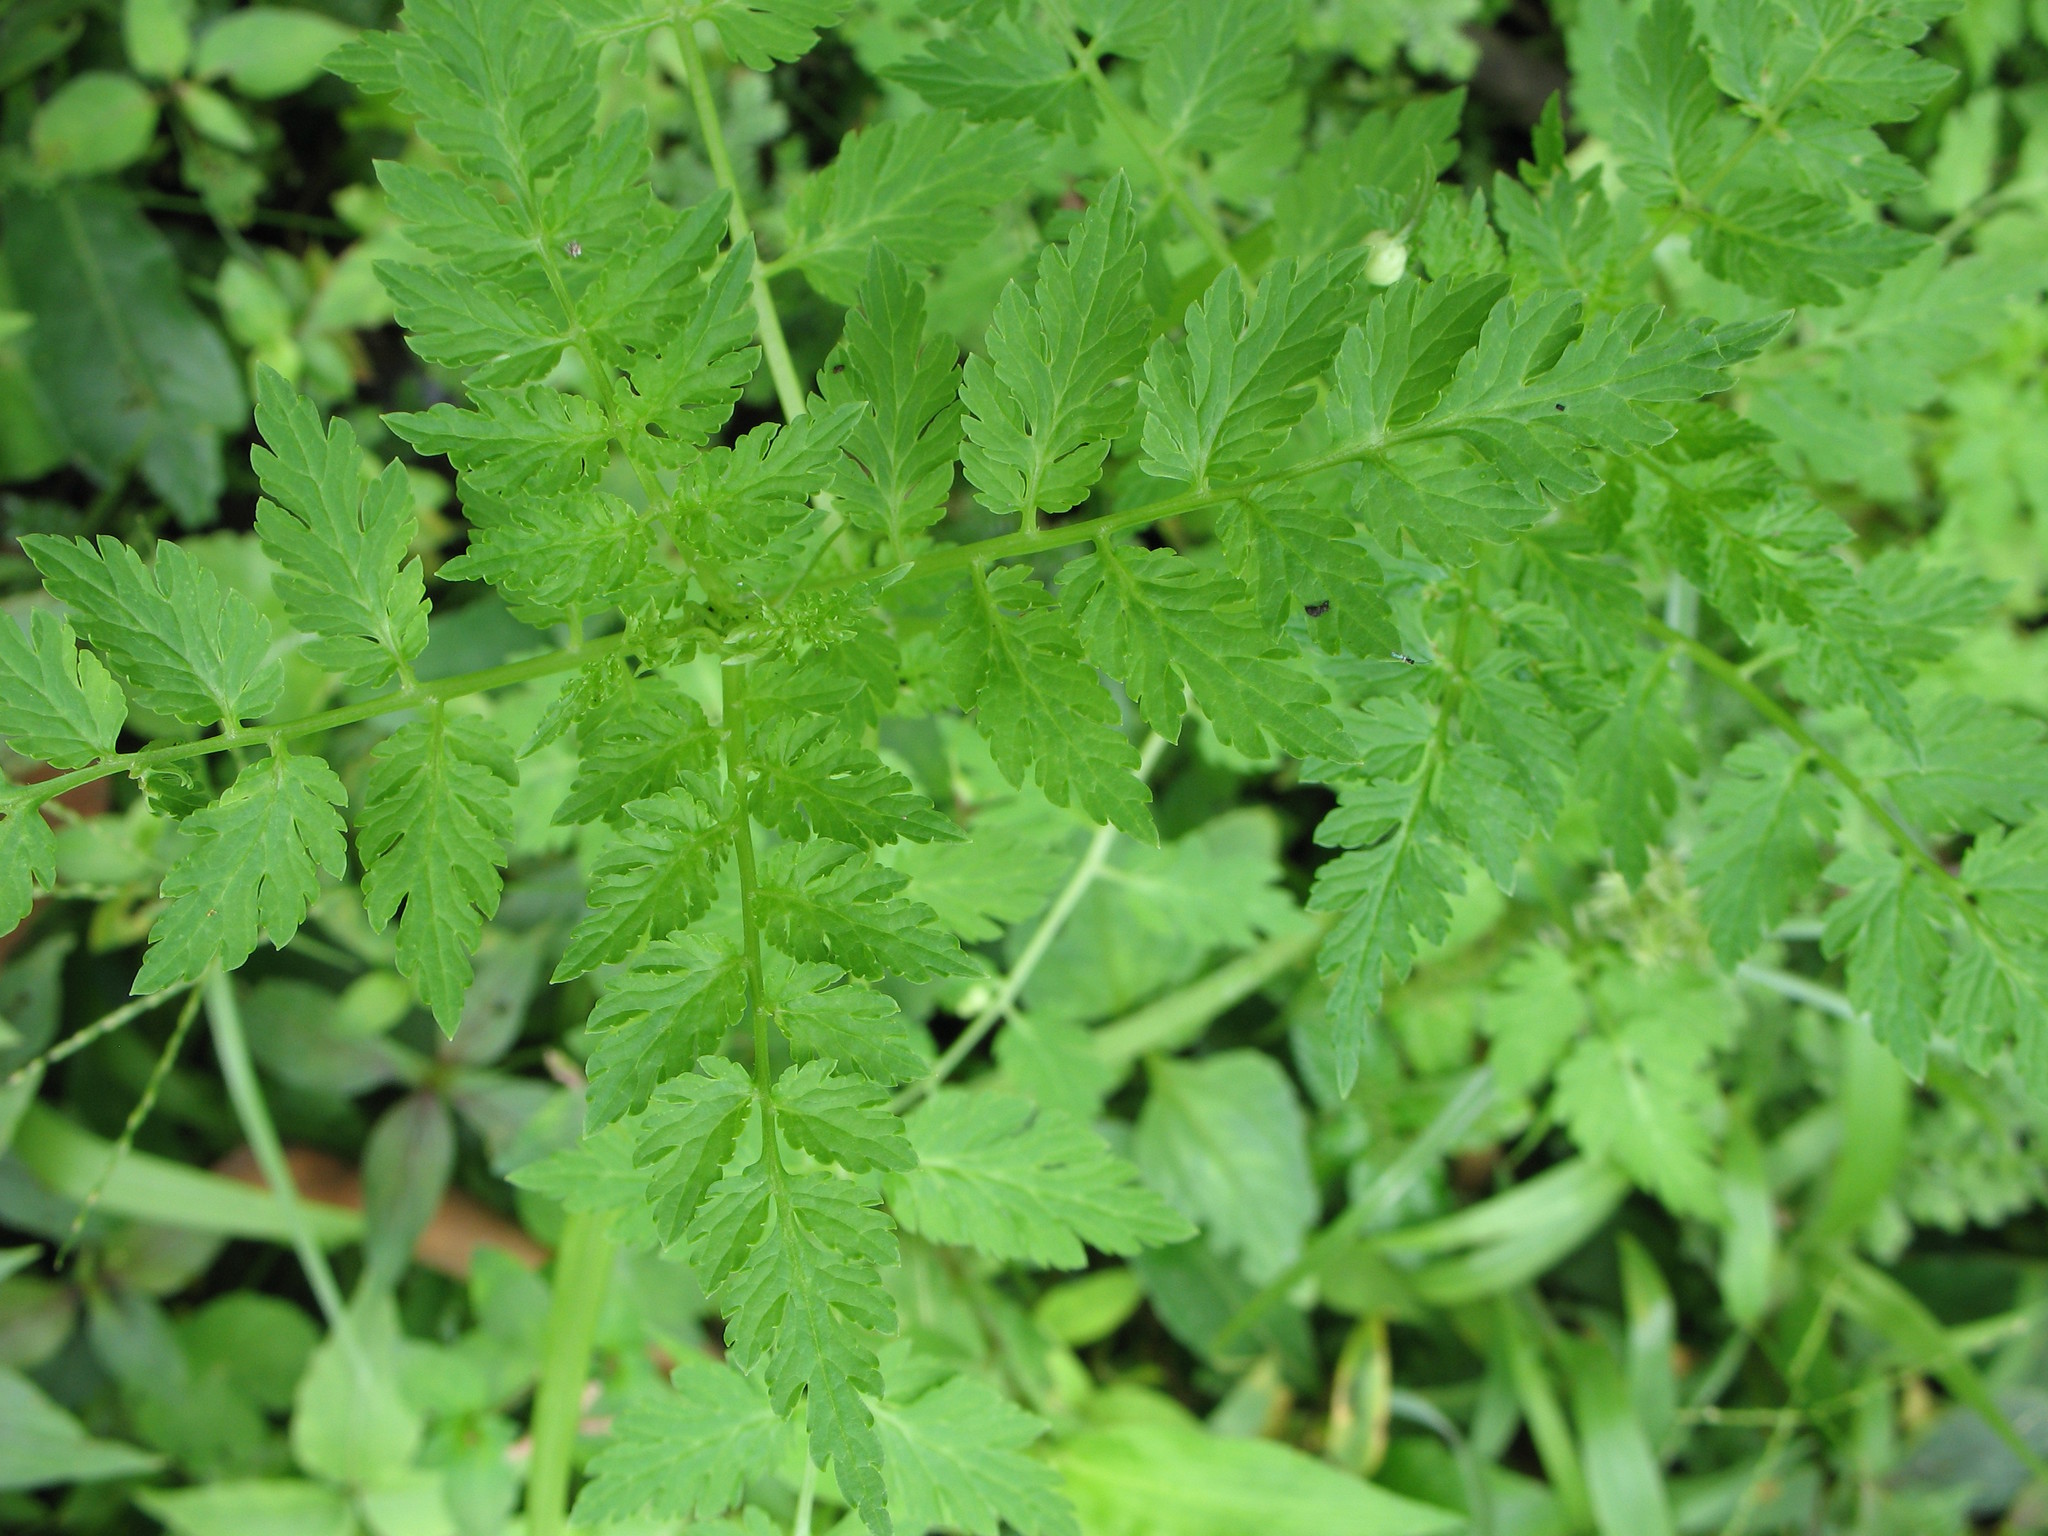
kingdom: Plantae
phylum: Tracheophyta
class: Magnoliopsida
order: Dipsacales
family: Caprifoliaceae
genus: Valeriana
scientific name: Valeriana chaerophylloides
